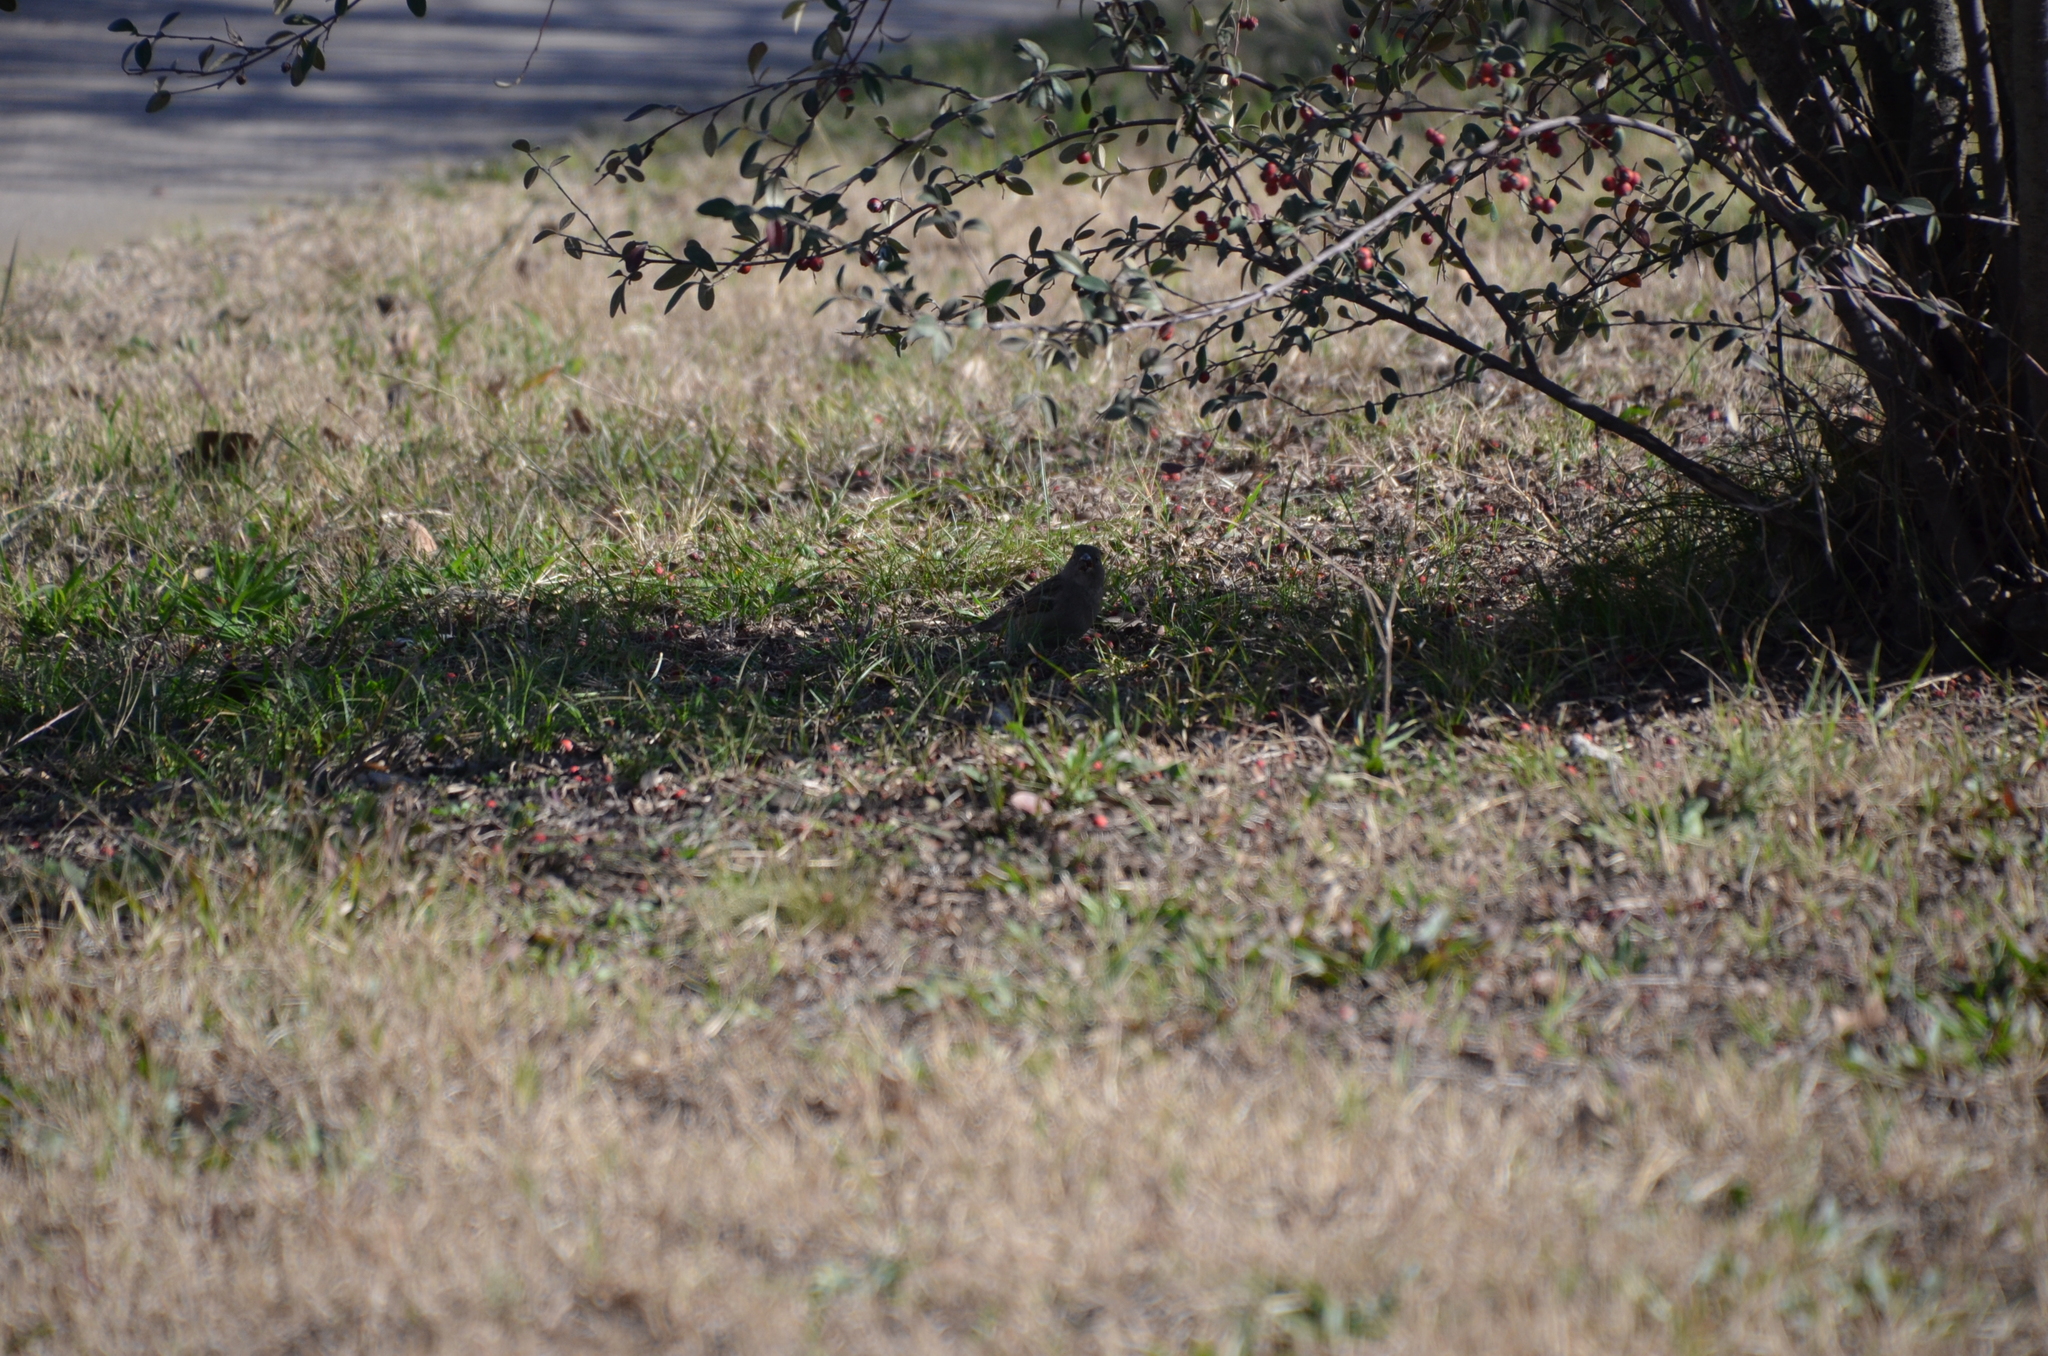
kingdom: Animalia
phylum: Chordata
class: Aves
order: Passeriformes
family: Passeridae
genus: Passer
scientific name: Passer domesticus
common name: House sparrow
